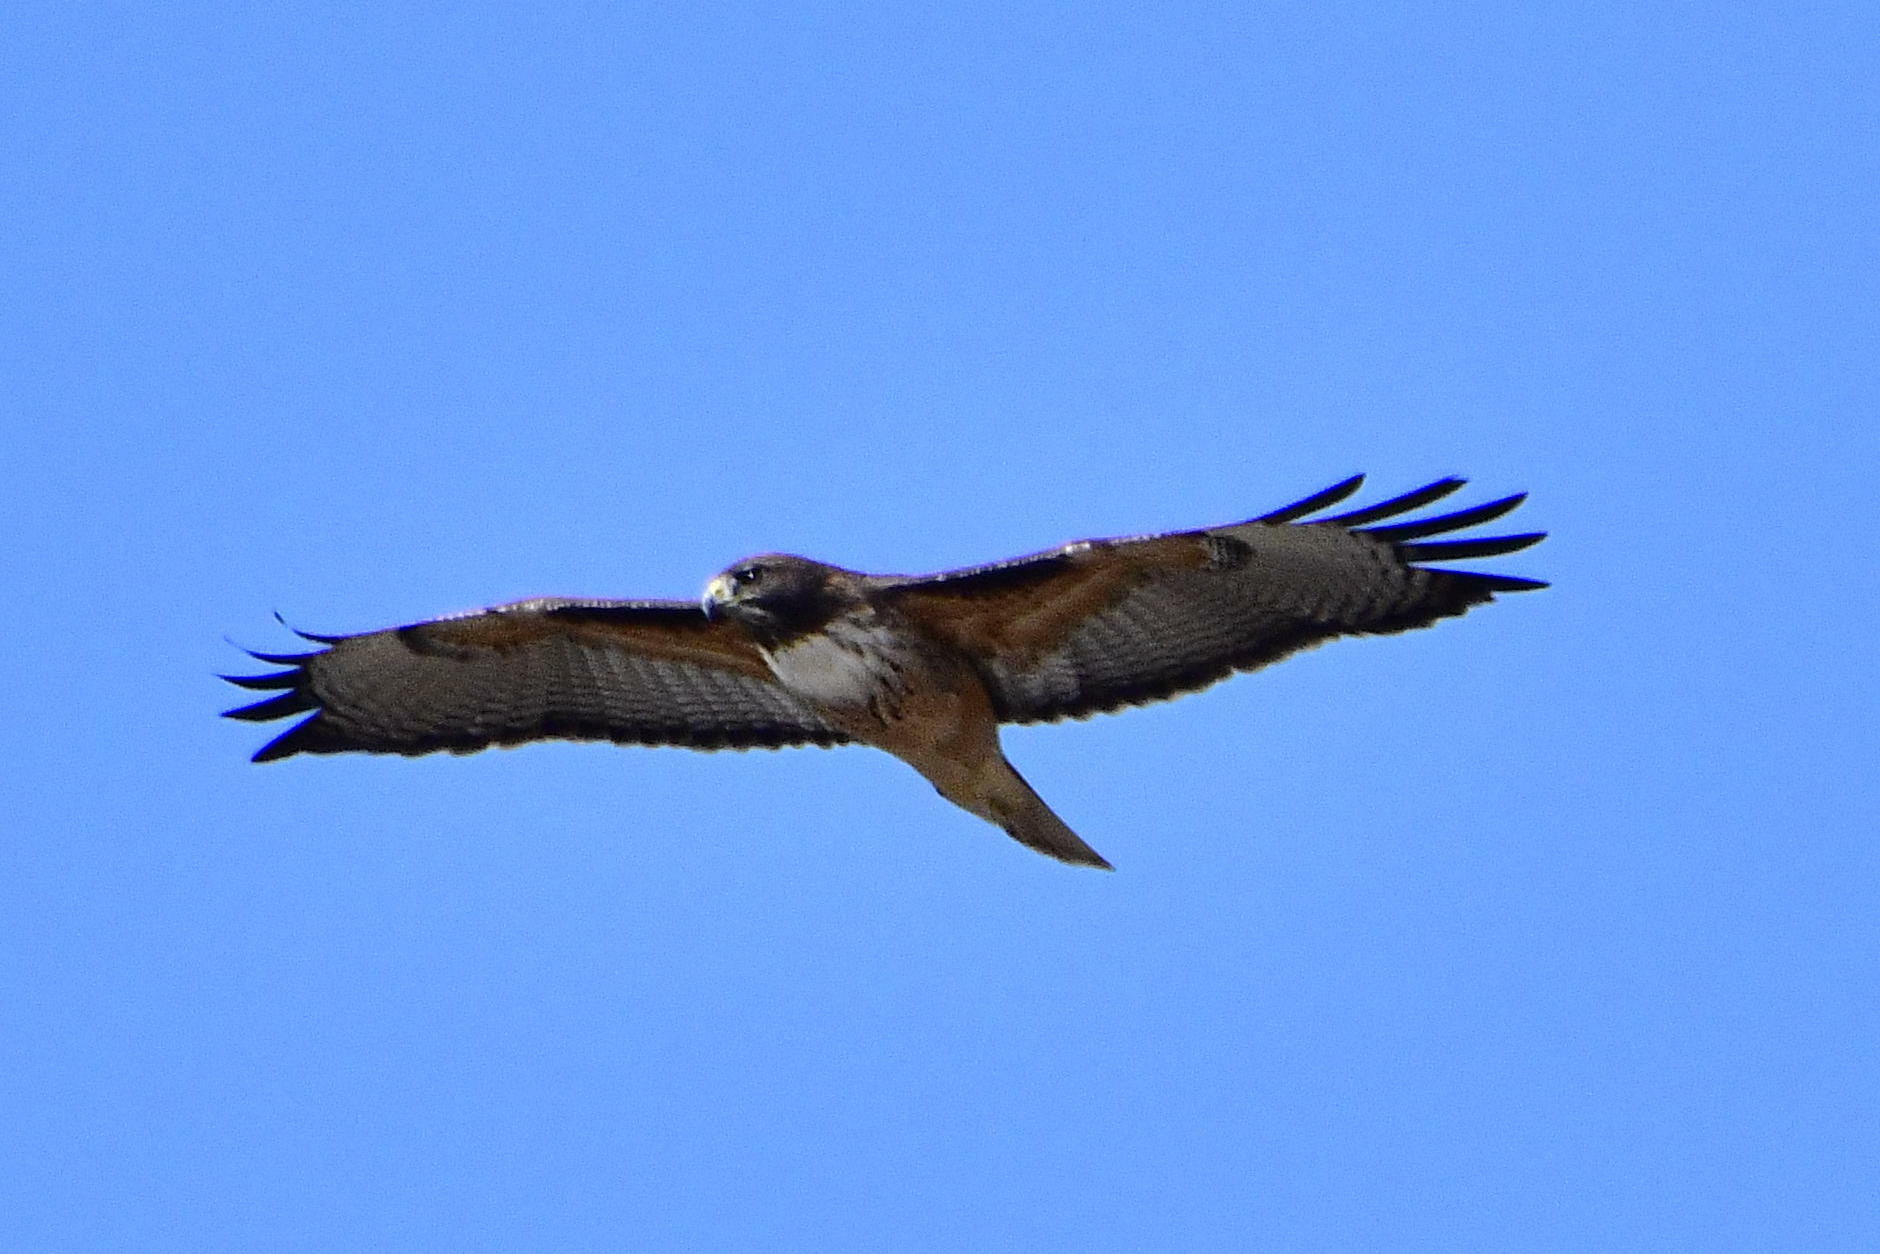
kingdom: Animalia
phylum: Chordata
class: Aves
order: Accipitriformes
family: Accipitridae
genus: Buteo
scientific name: Buteo jamaicensis
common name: Red-tailed hawk
